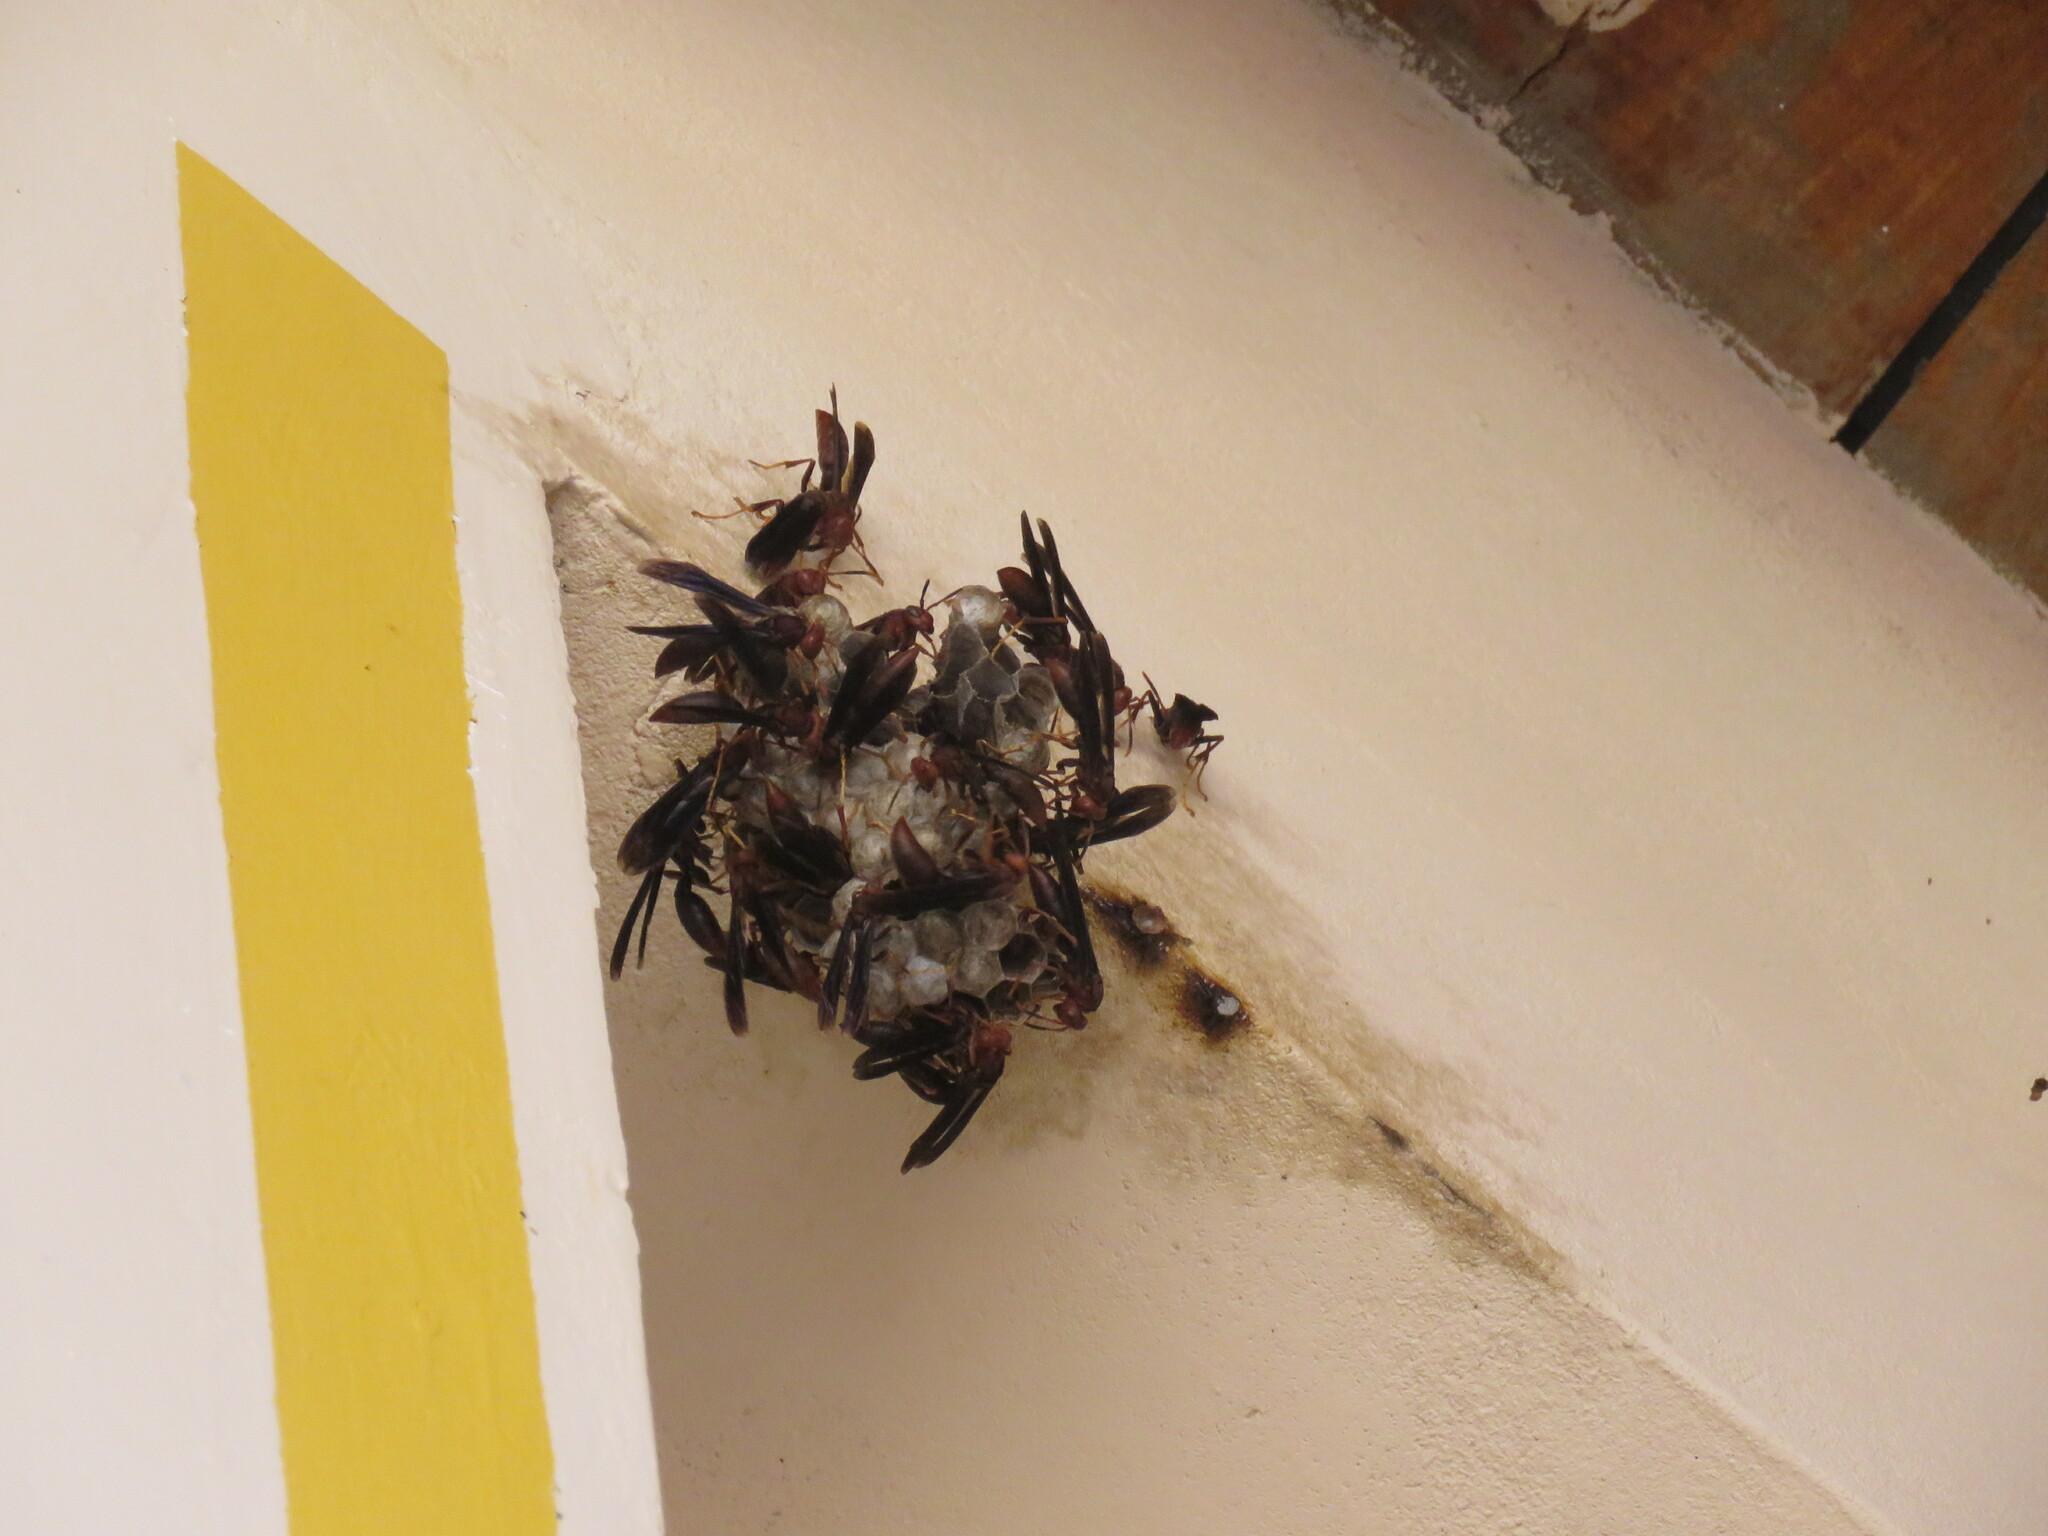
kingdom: Animalia
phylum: Arthropoda
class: Insecta
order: Hymenoptera
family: Eumenidae
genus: Polistes
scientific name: Polistes ferreri
